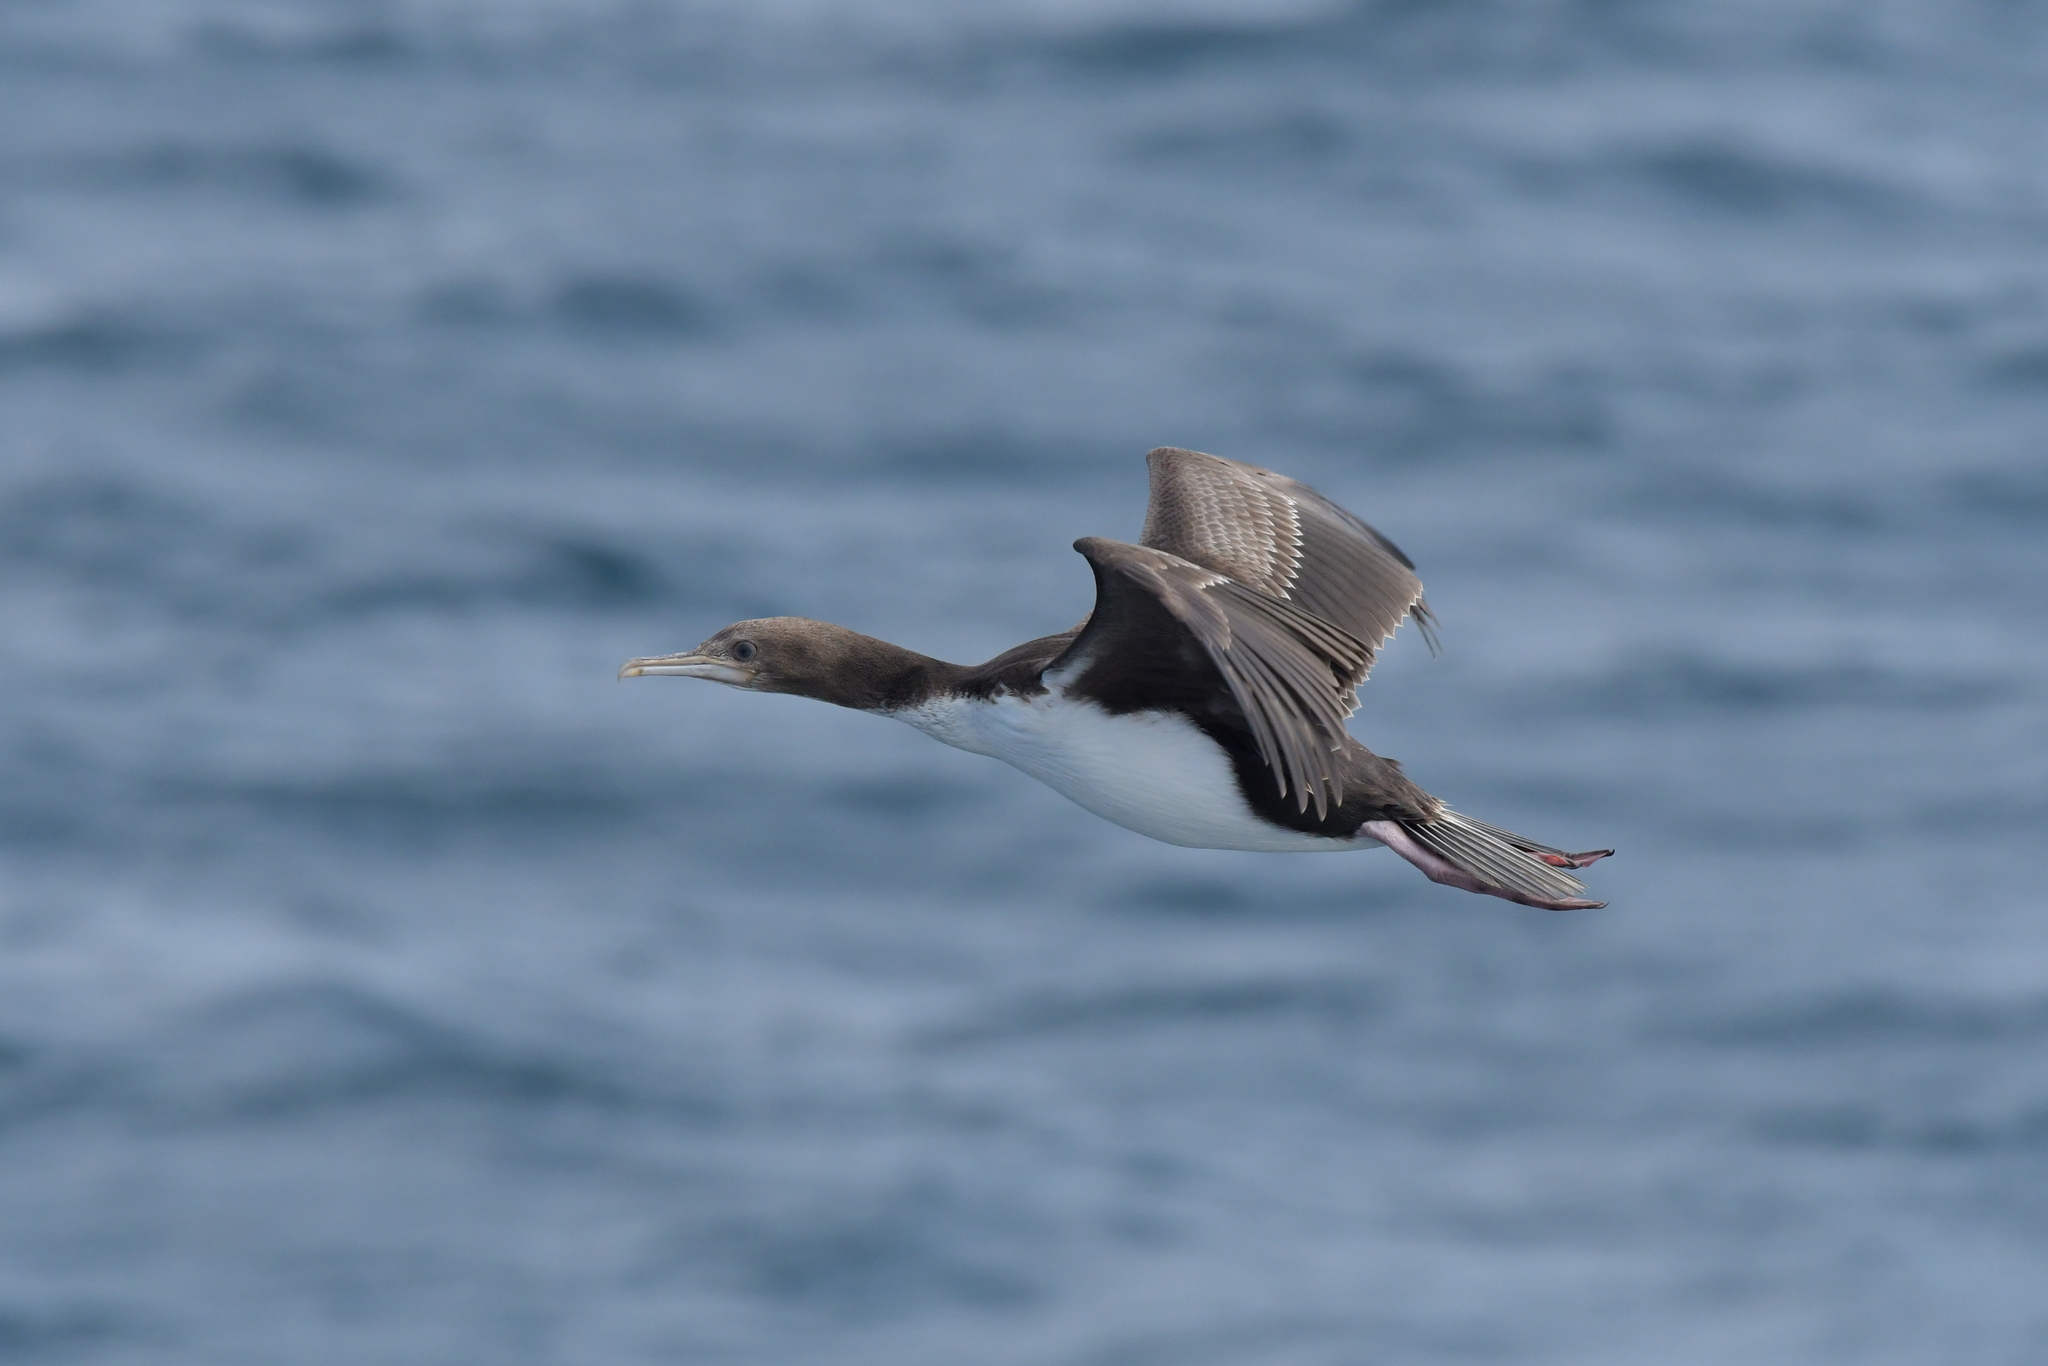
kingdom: Animalia
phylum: Chordata
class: Aves
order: Suliformes
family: Phalacrocoracidae
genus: Leucocarbo
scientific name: Leucocarbo onslowi
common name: Chatham shag
